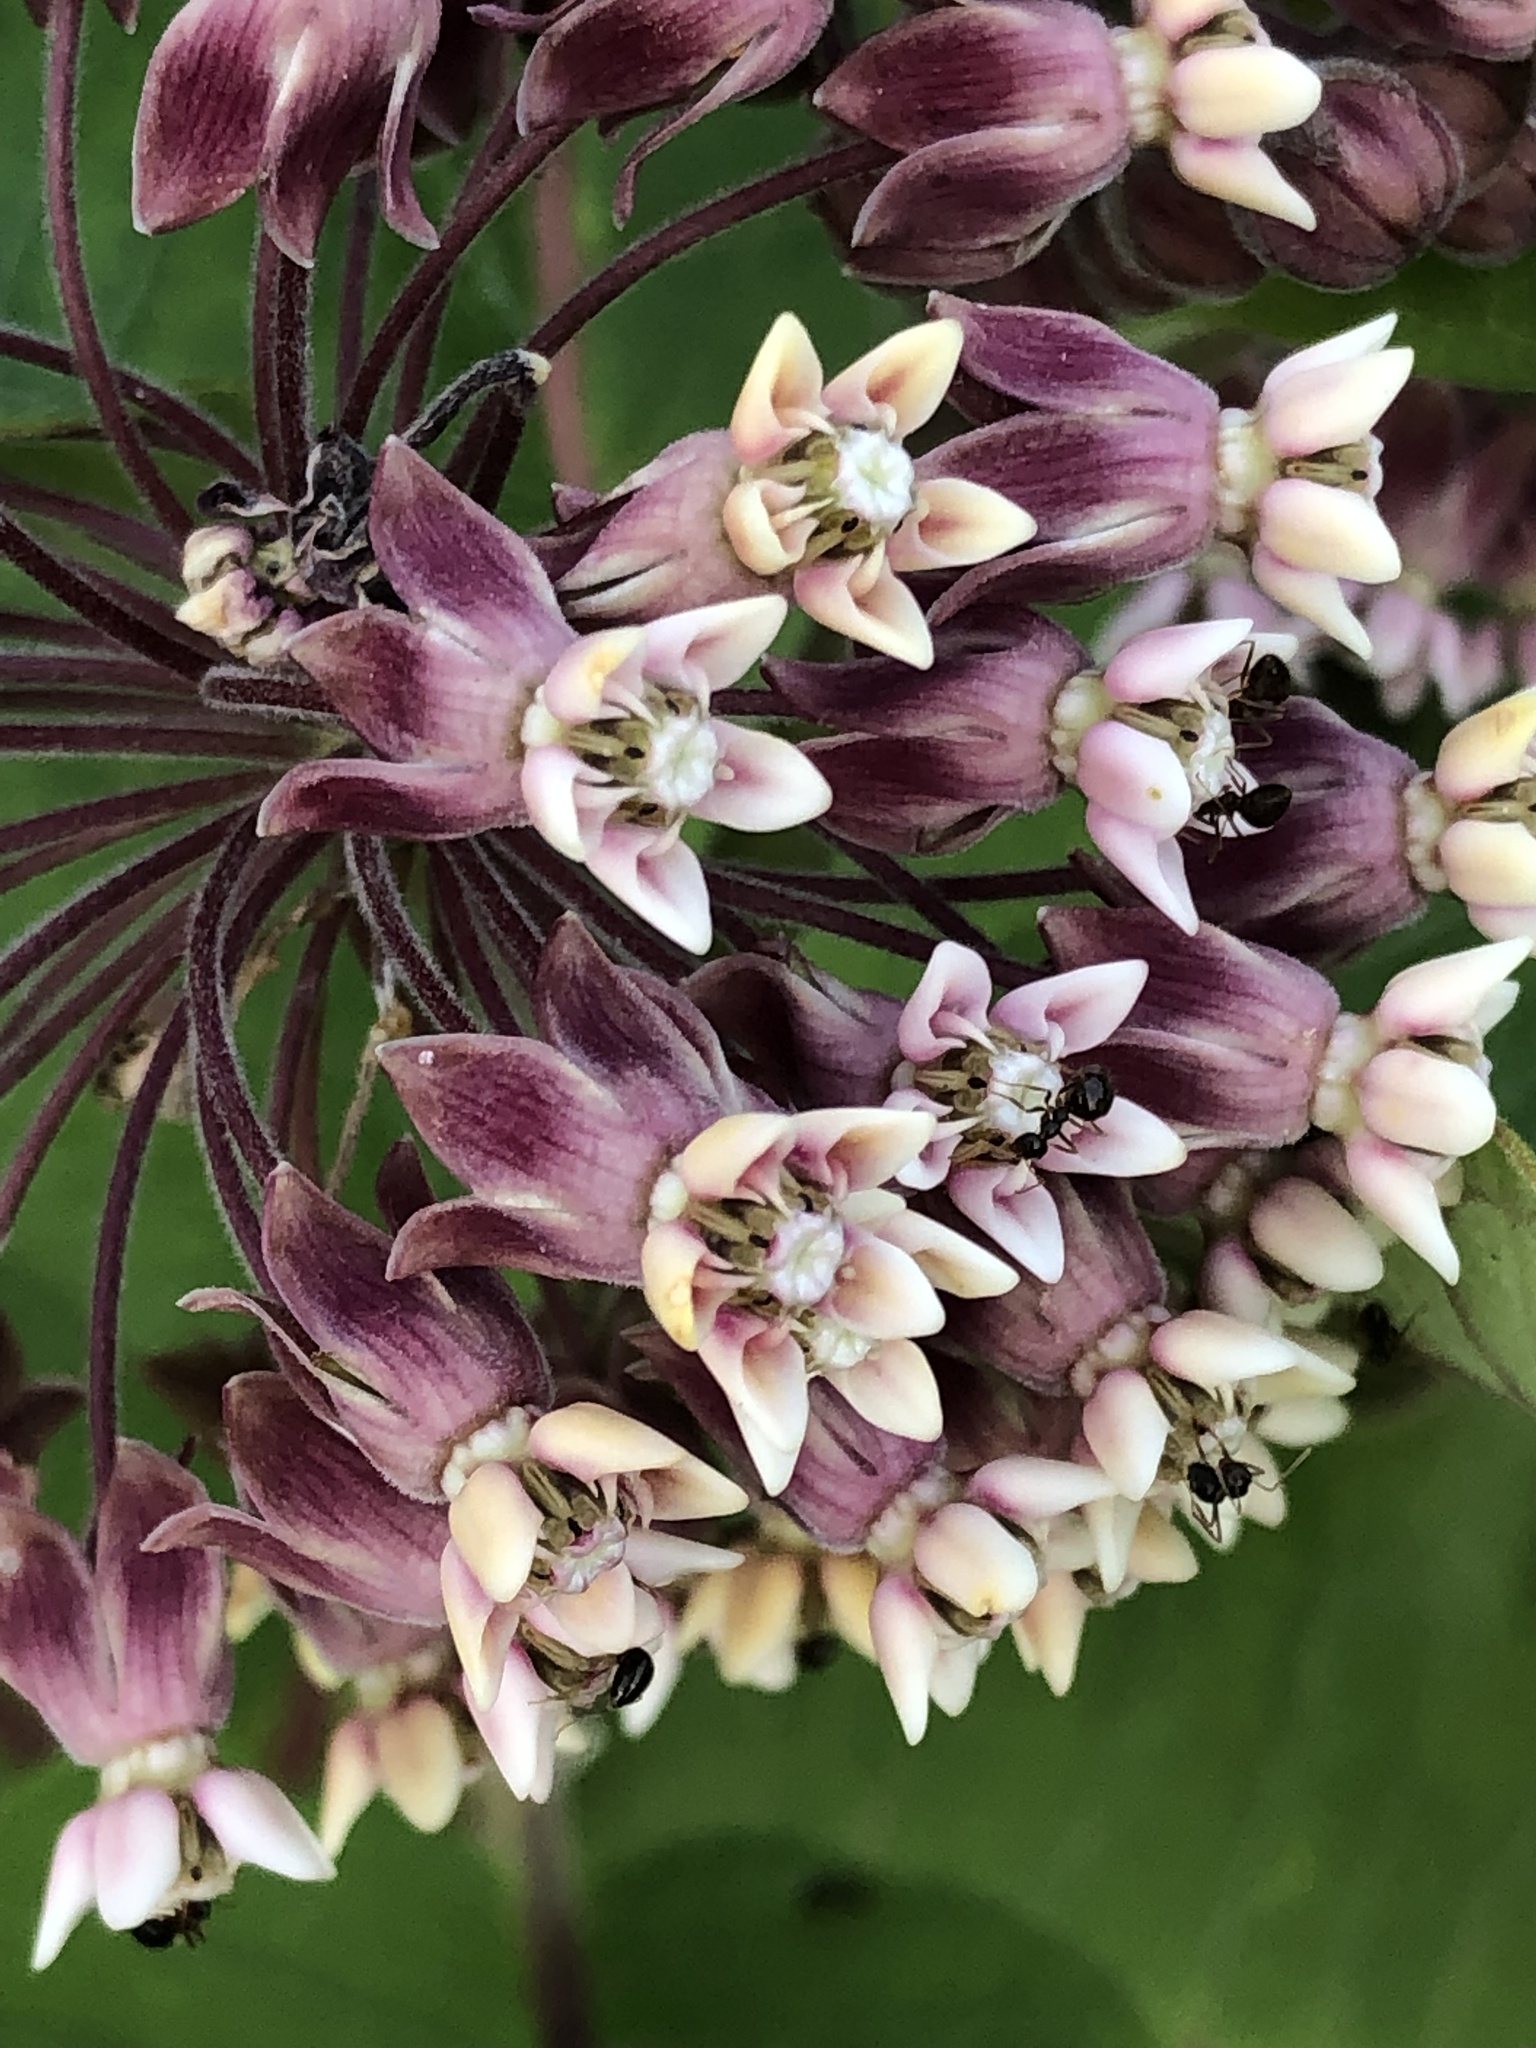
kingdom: Plantae
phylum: Tracheophyta
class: Magnoliopsida
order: Gentianales
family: Apocynaceae
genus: Asclepias
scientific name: Asclepias syriaca
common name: Common milkweed
